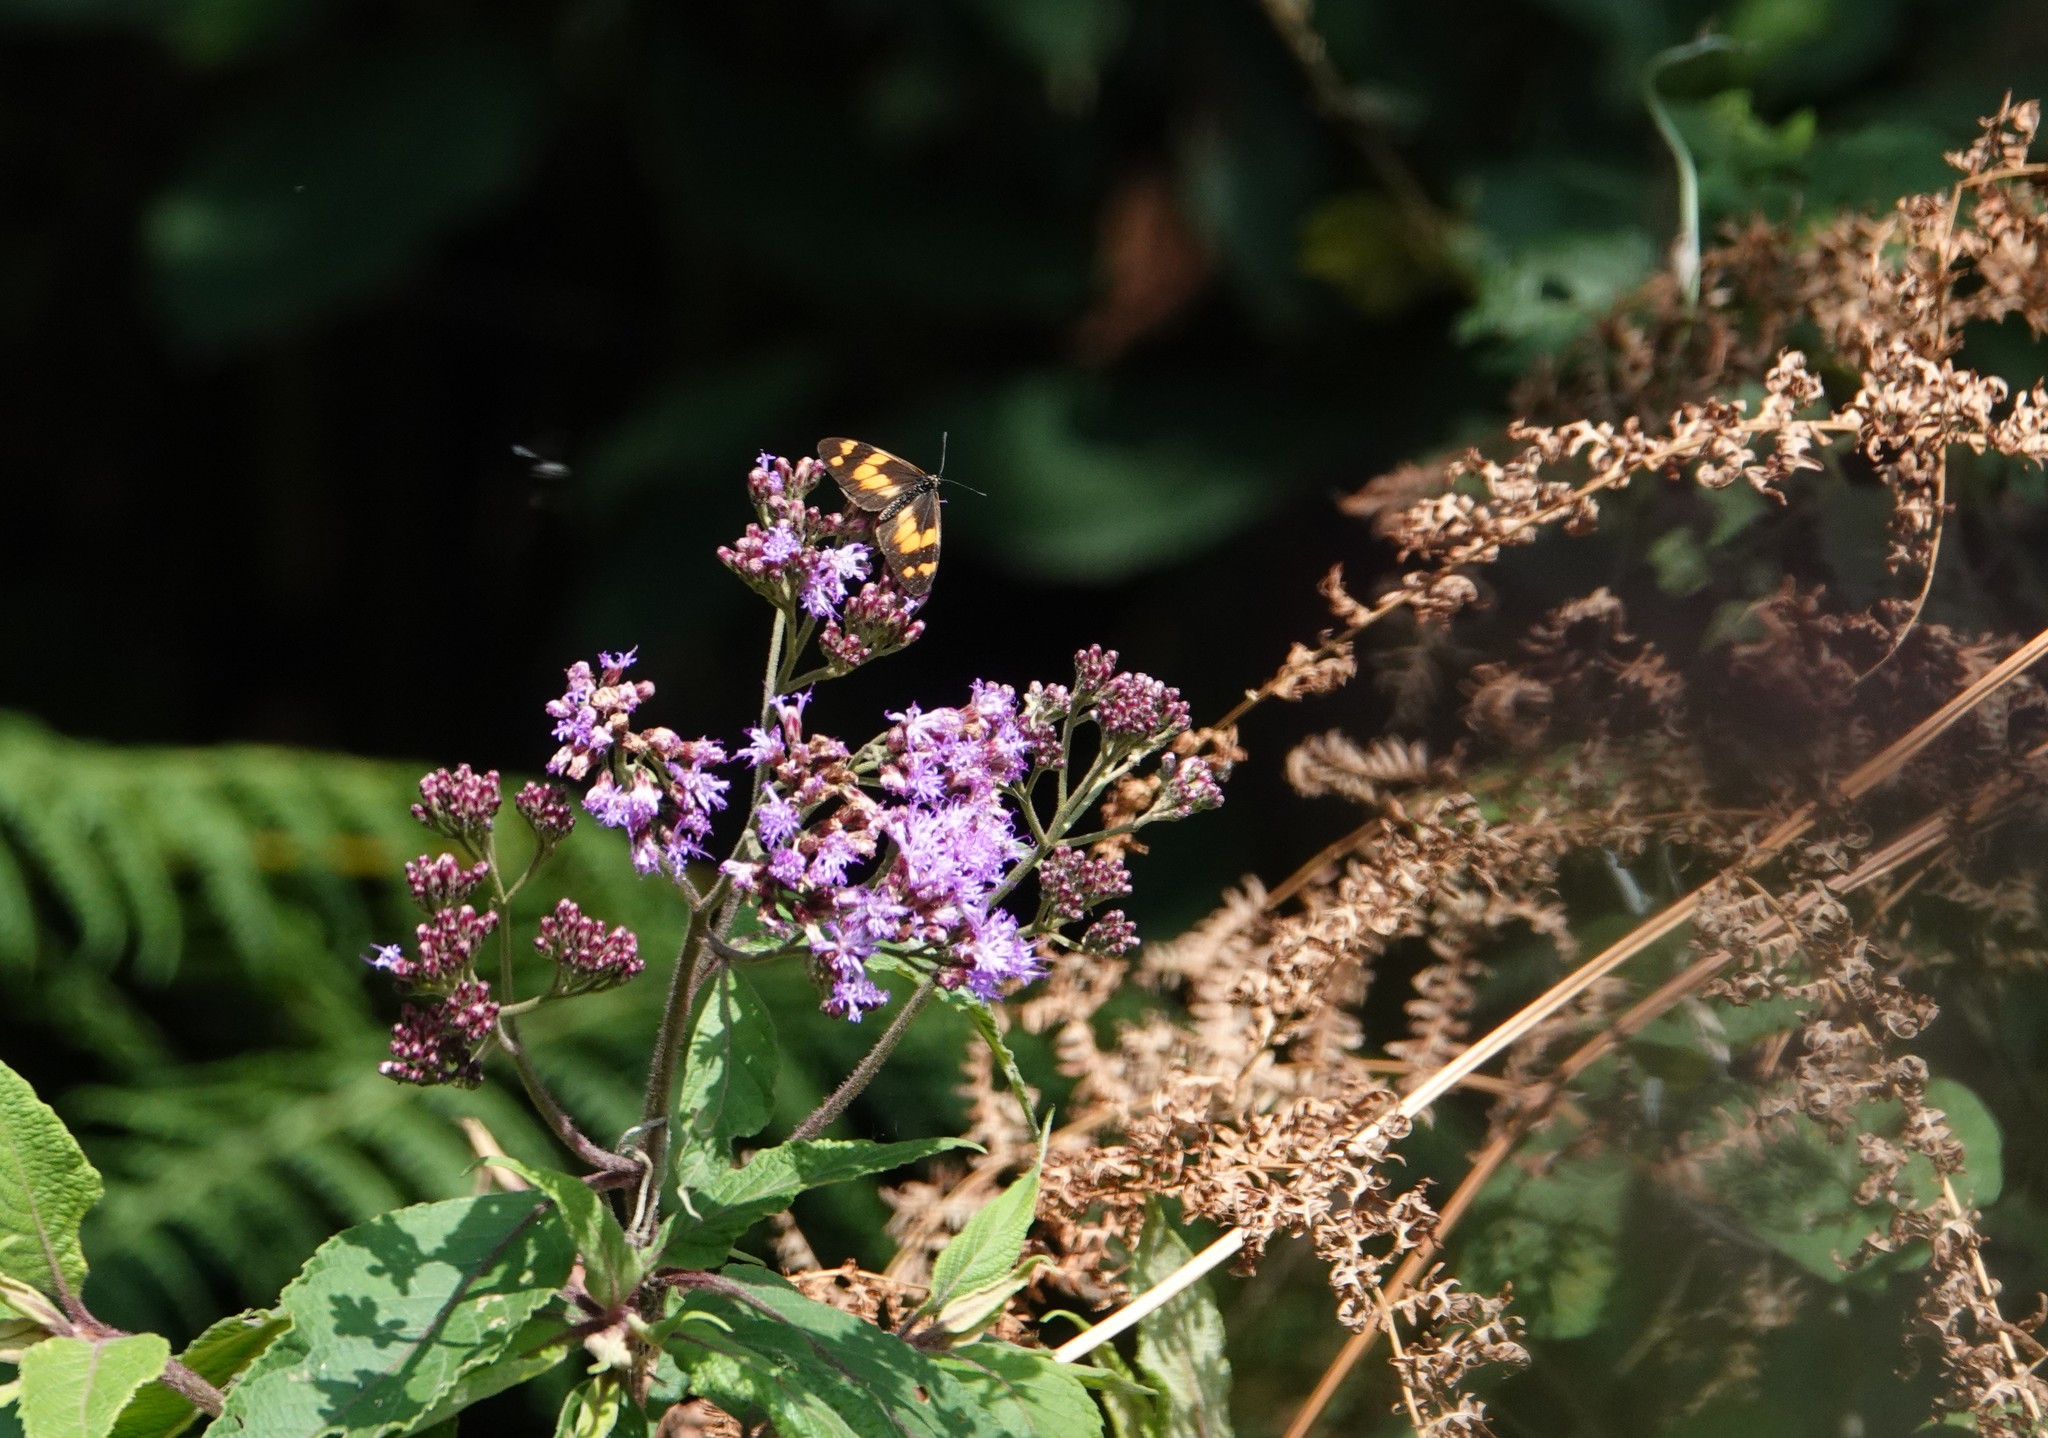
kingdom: Animalia
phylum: Arthropoda
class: Insecta
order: Lepidoptera
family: Nymphalidae
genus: Acraea
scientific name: Acraea
